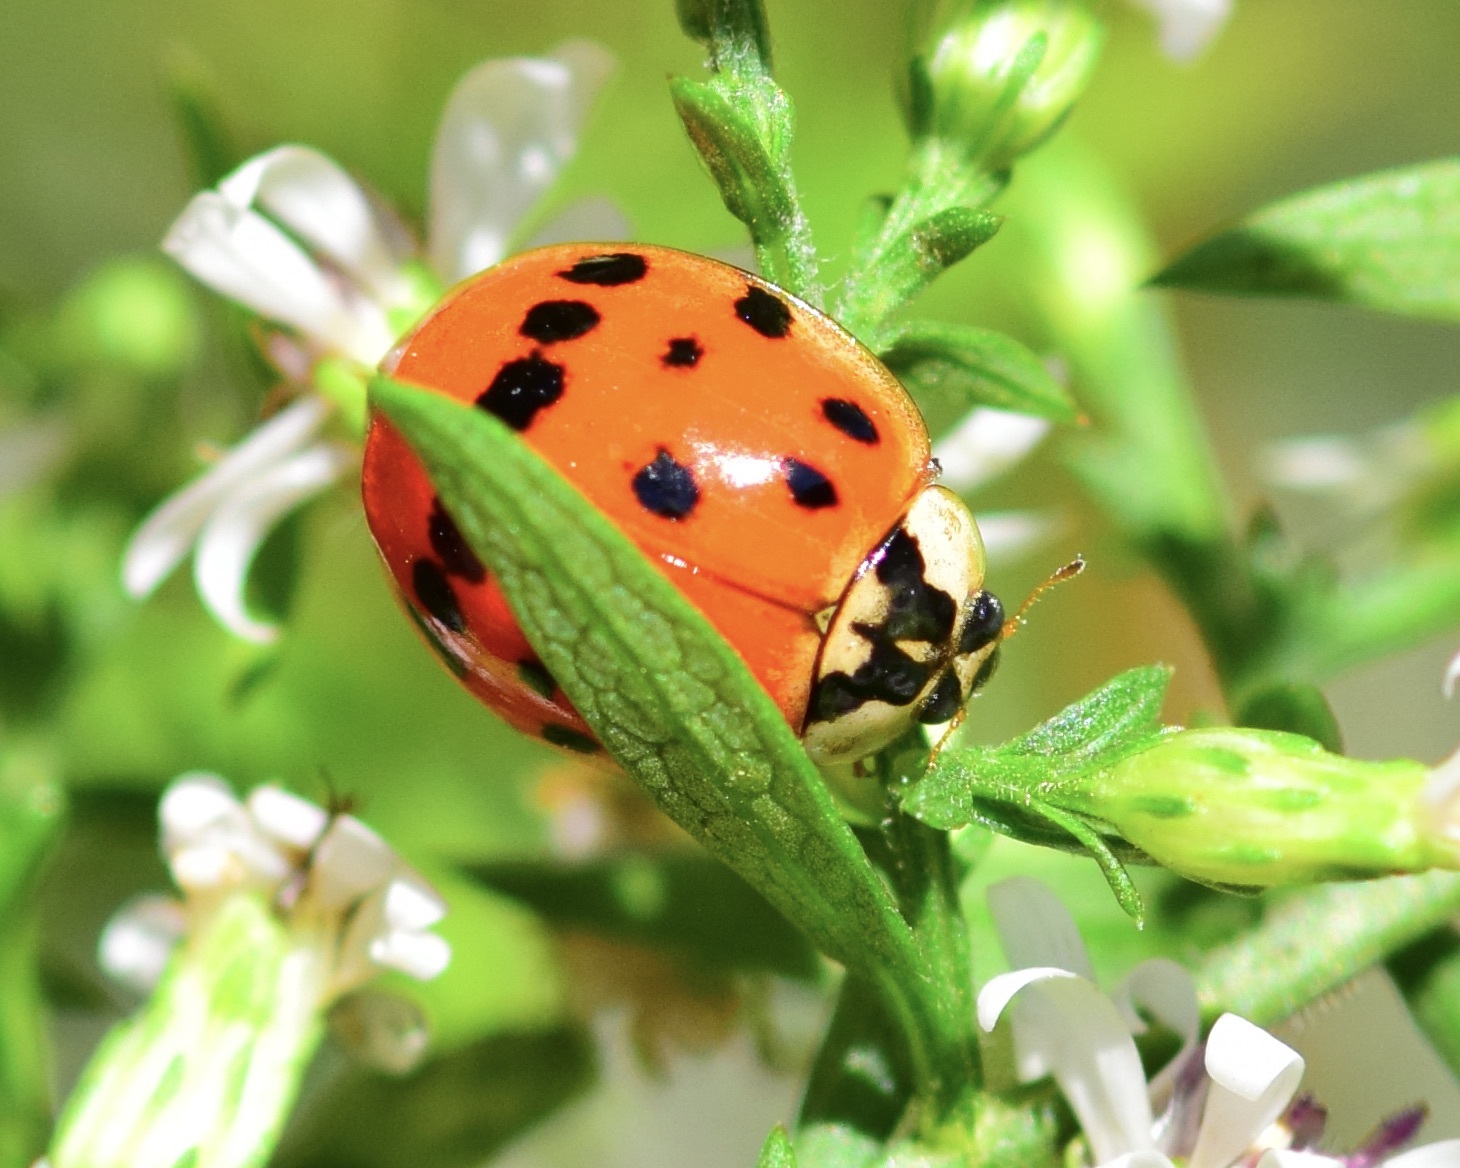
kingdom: Animalia
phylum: Arthropoda
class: Insecta
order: Coleoptera
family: Coccinellidae
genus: Harmonia
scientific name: Harmonia axyridis
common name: Harlequin ladybird
